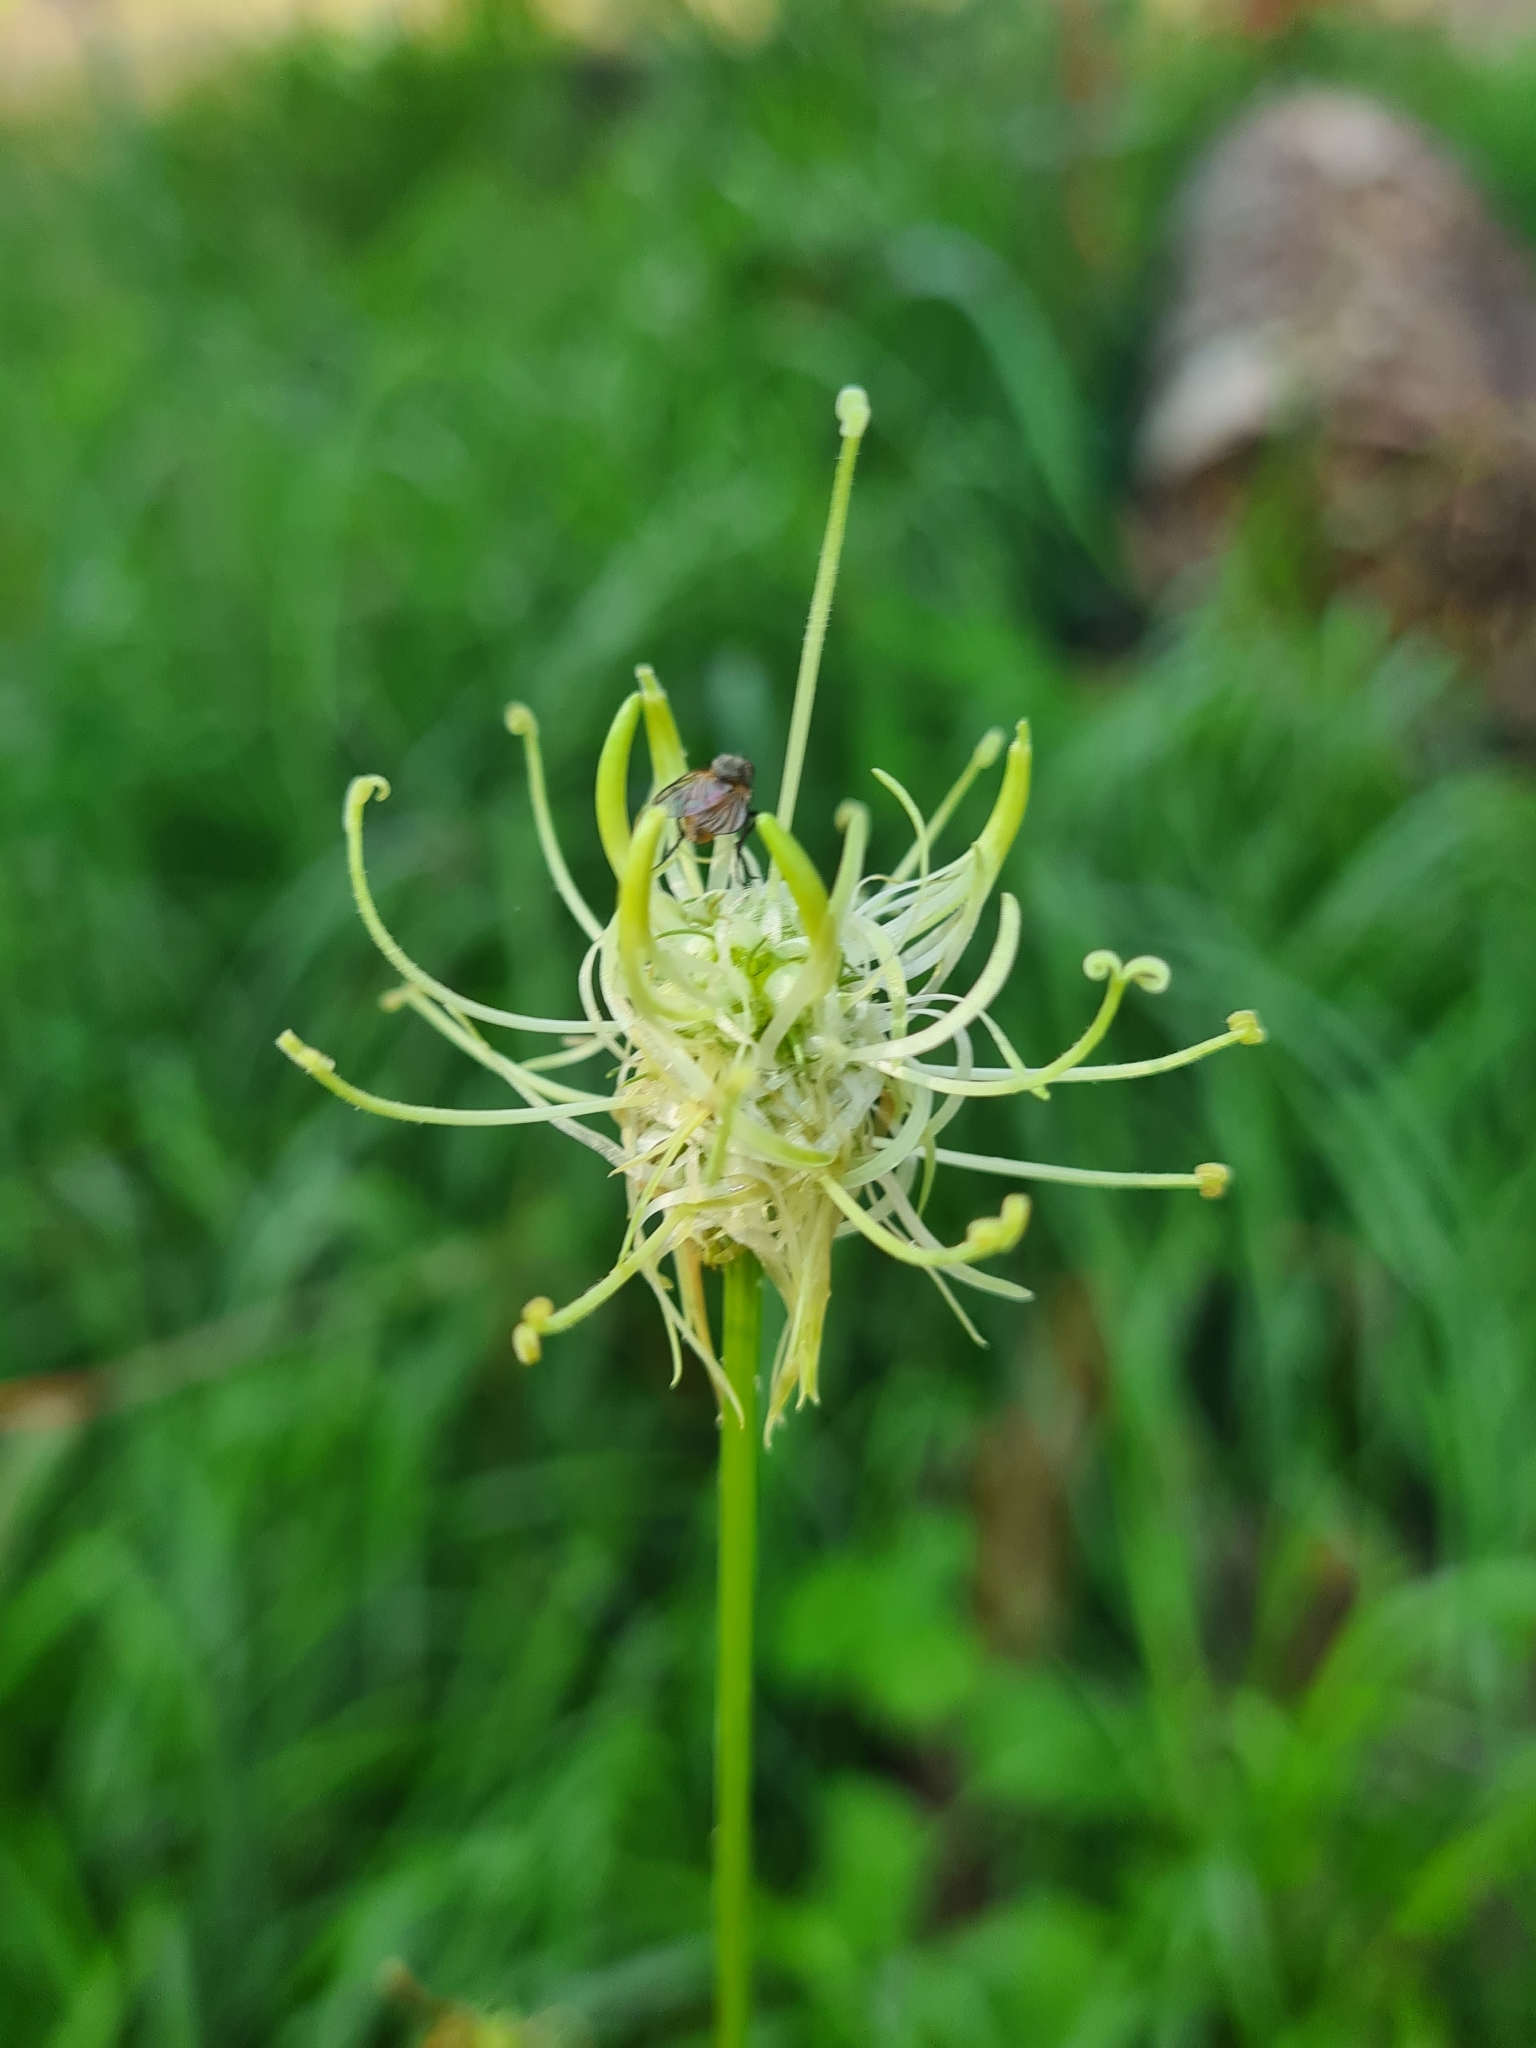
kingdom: Plantae
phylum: Tracheophyta
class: Magnoliopsida
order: Asterales
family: Campanulaceae
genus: Phyteuma
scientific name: Phyteuma spicatum
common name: Spiked rampion
